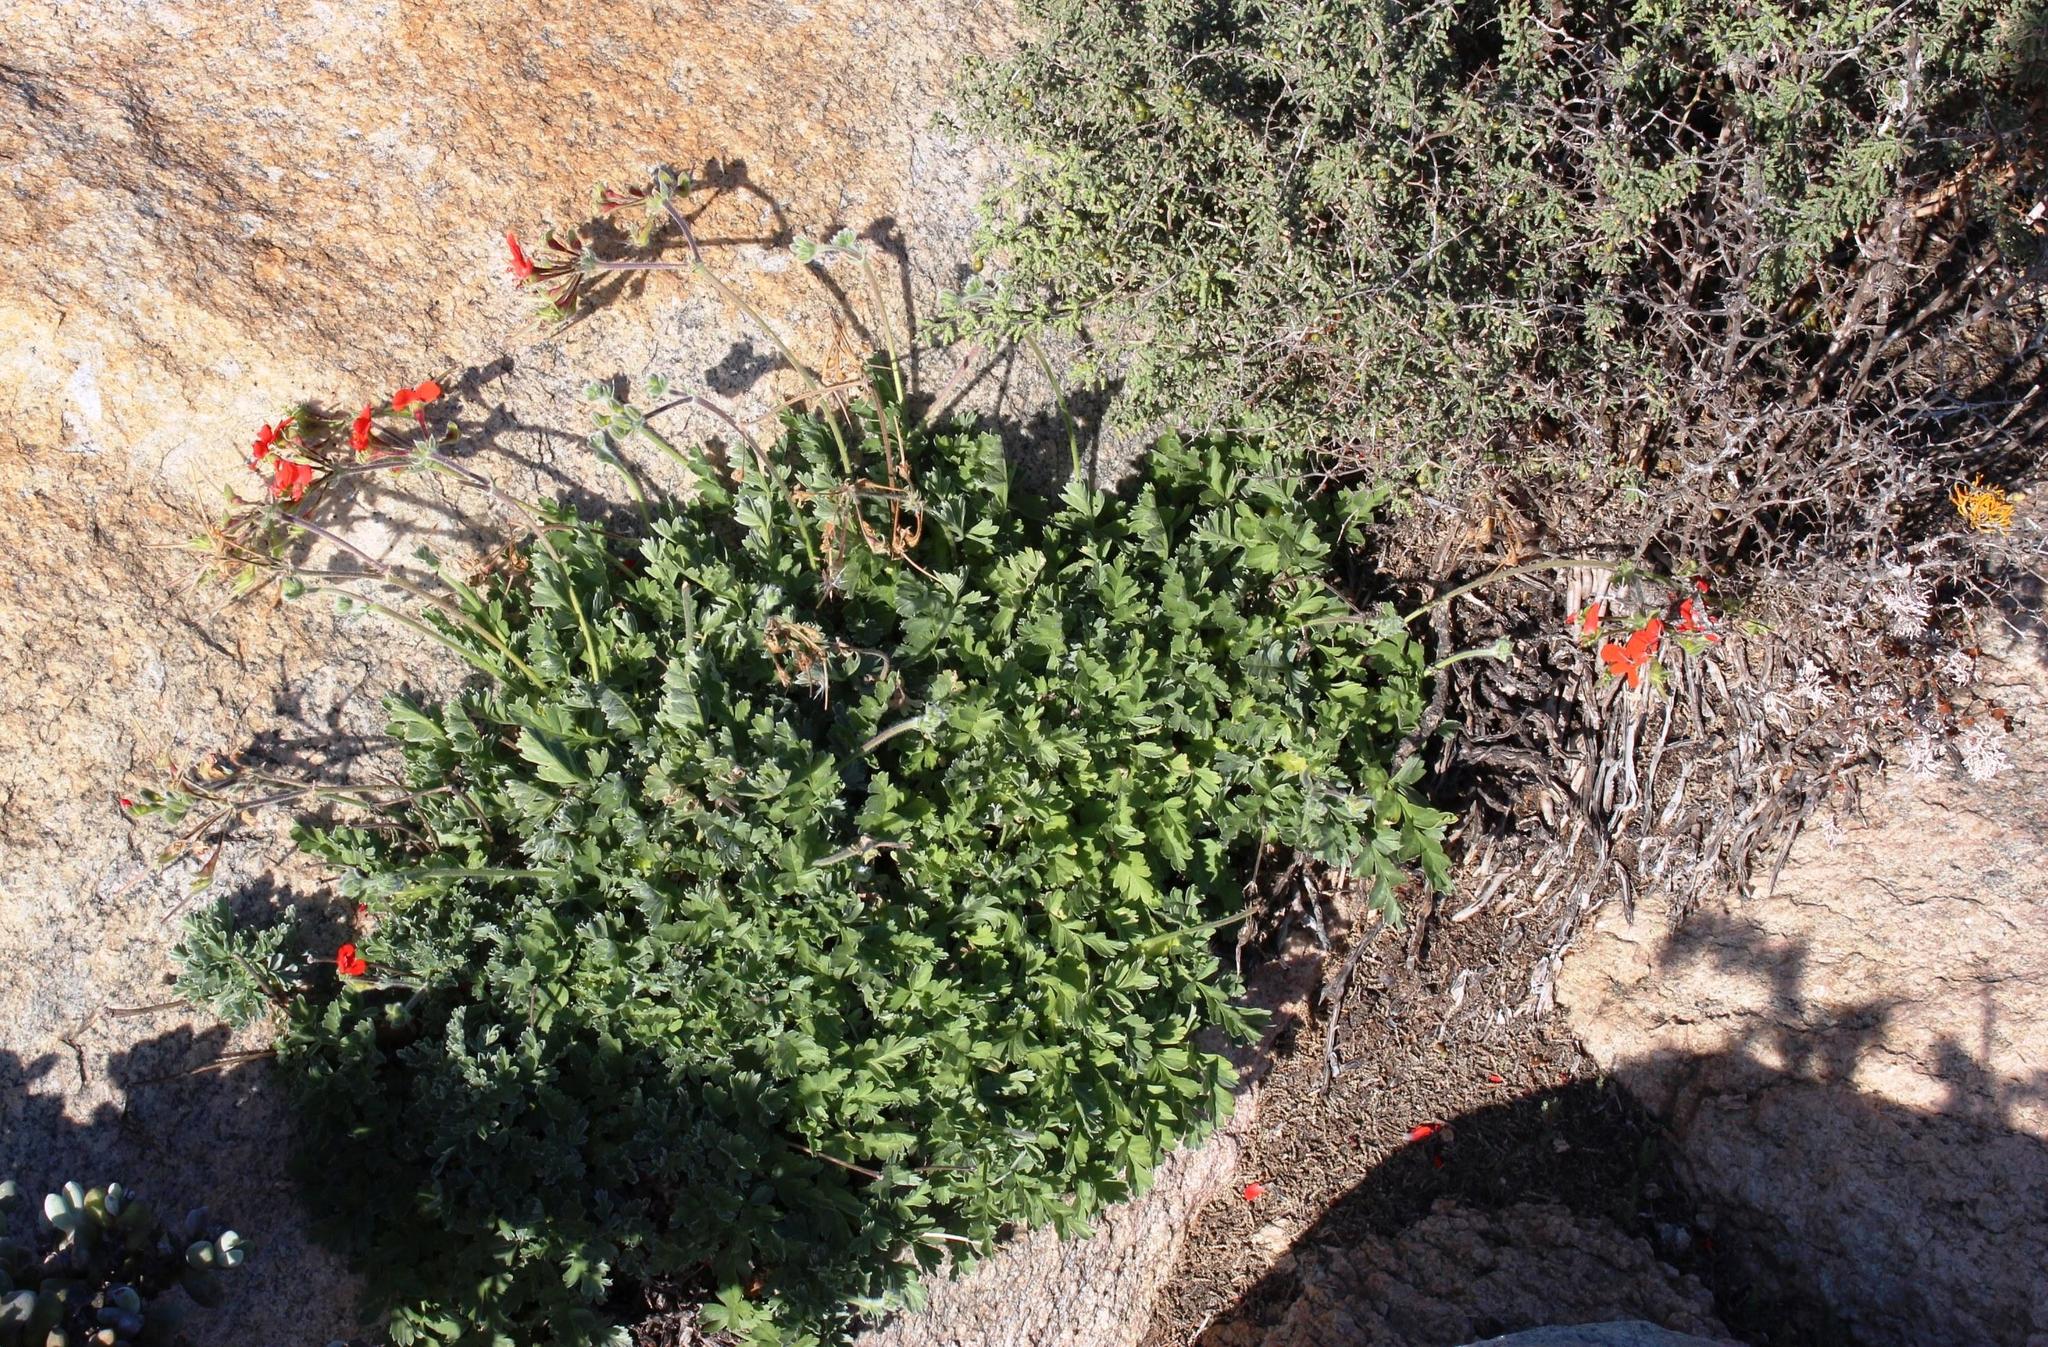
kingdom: Plantae
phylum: Tracheophyta
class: Magnoliopsida
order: Geraniales
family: Geraniaceae
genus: Pelargonium
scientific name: Pelargonium fulgidum
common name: Celandine-leaf pelargonium
